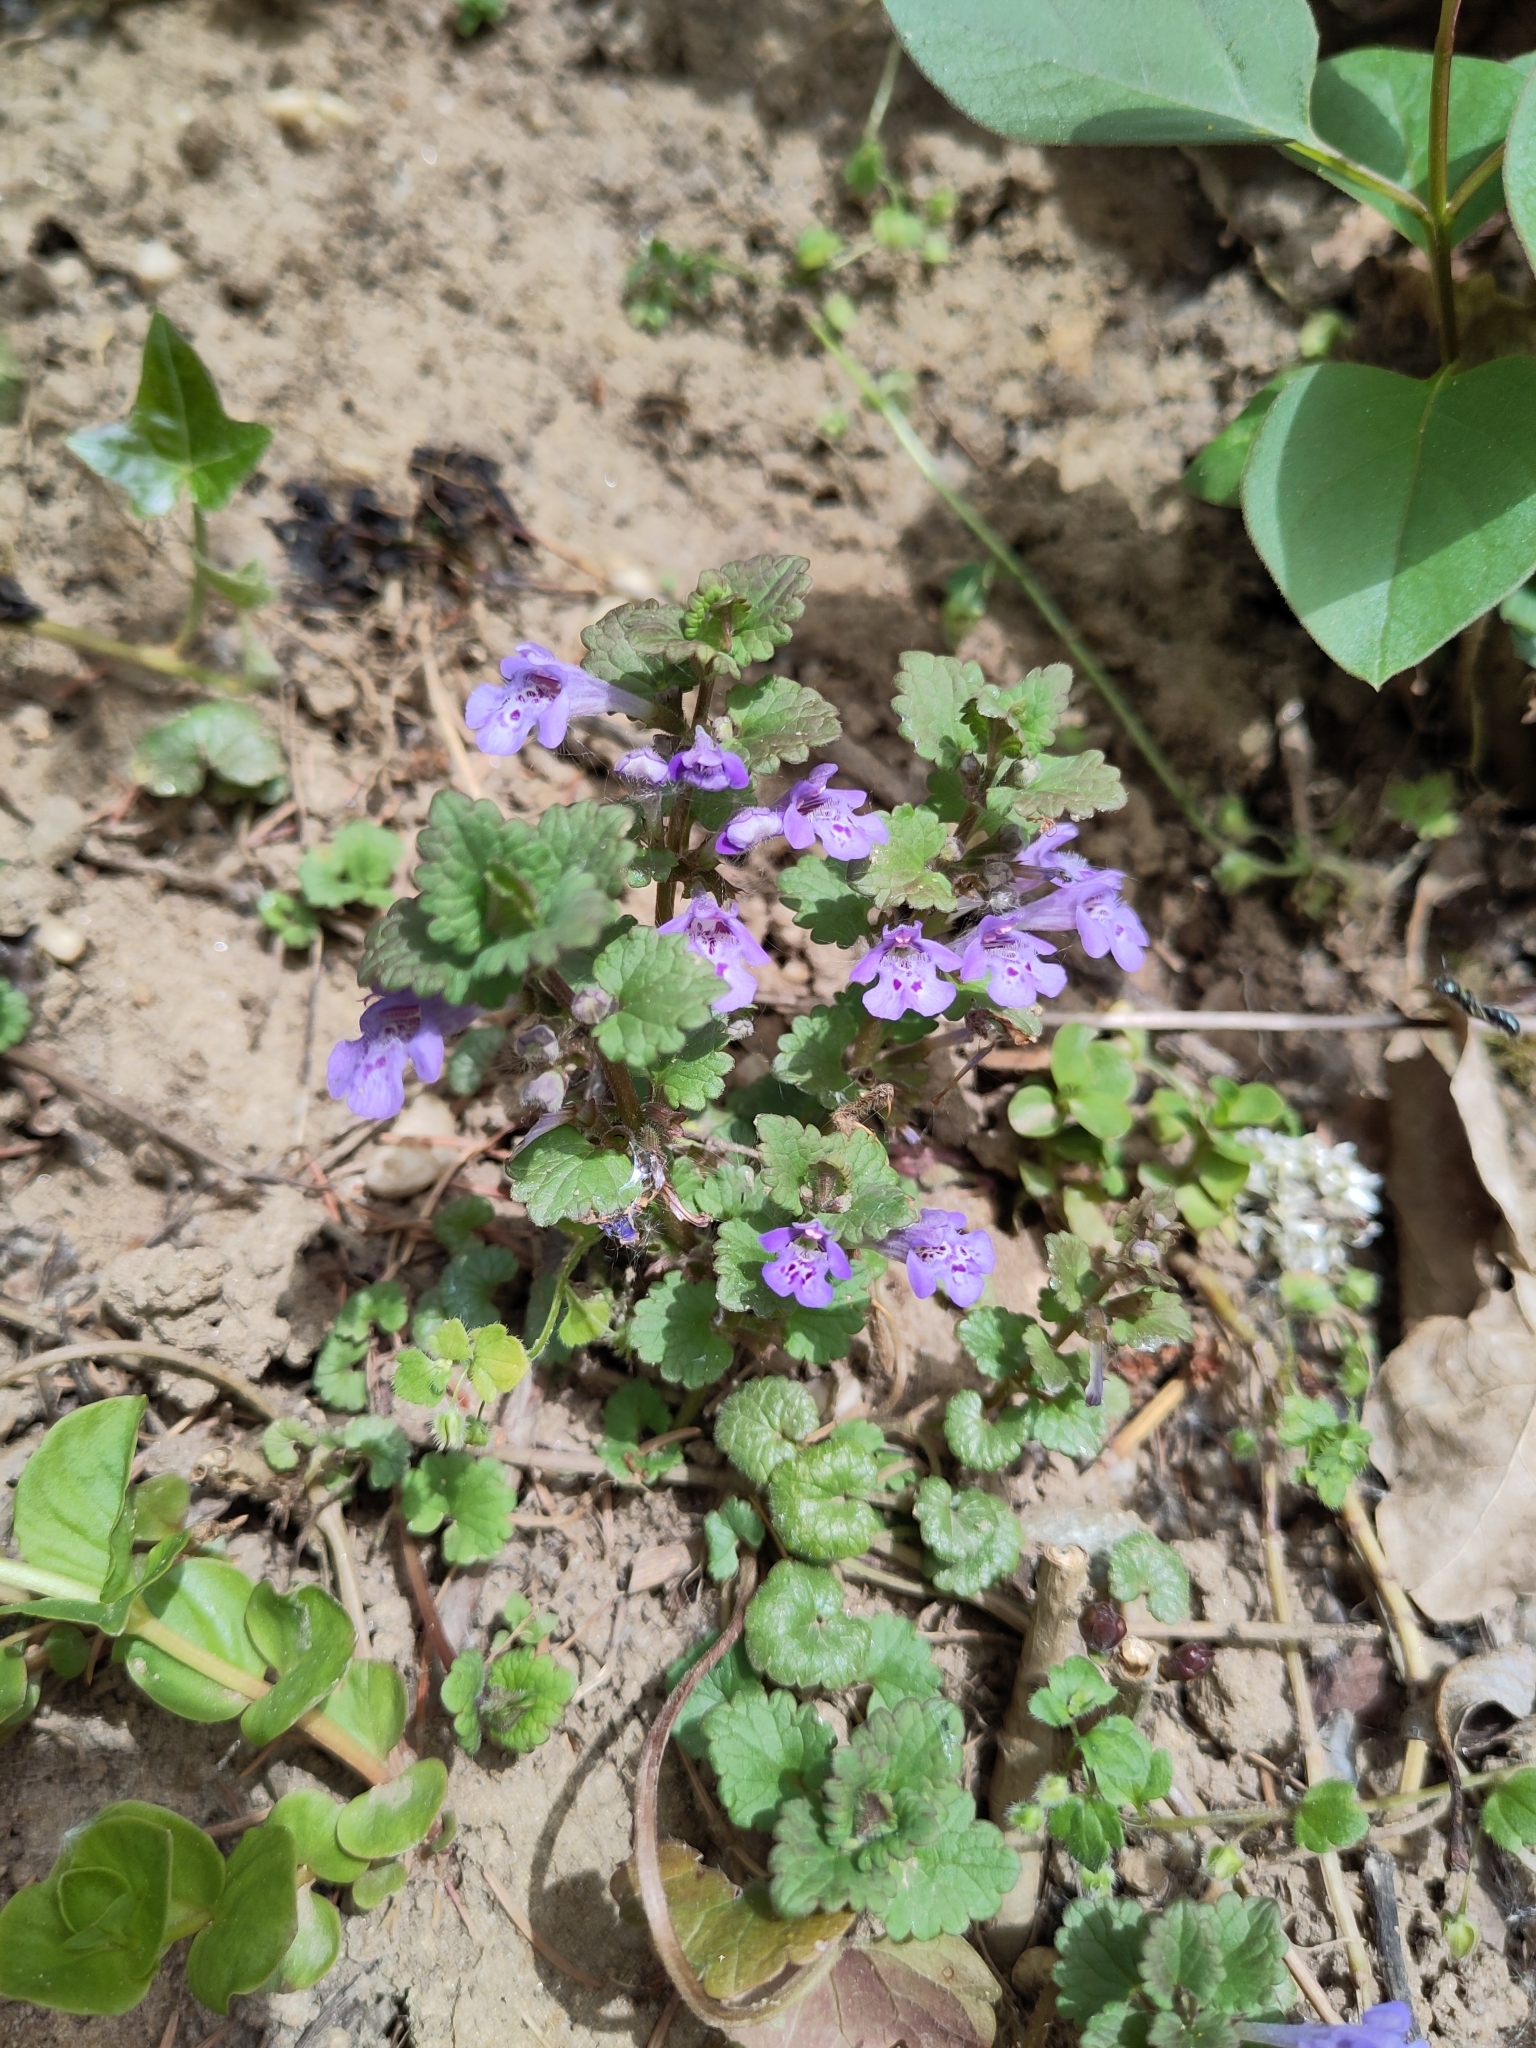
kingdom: Plantae
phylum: Tracheophyta
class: Magnoliopsida
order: Lamiales
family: Lamiaceae
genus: Glechoma
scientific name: Glechoma hederacea
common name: Ground ivy
